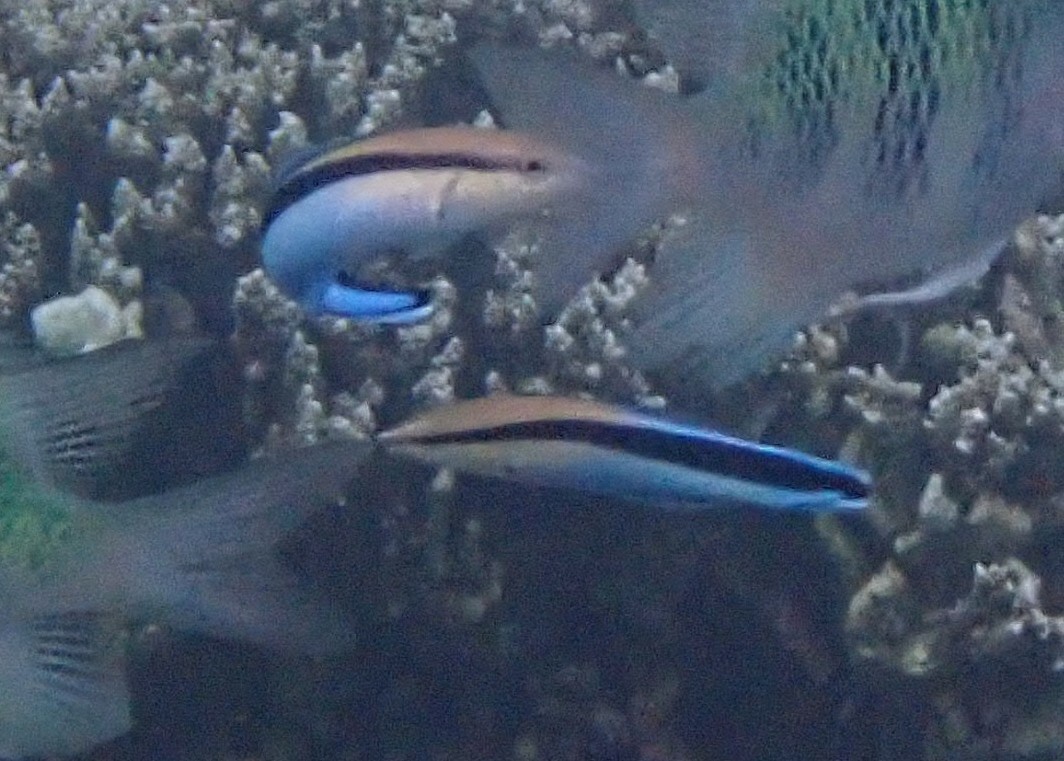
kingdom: Animalia
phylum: Chordata
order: Perciformes
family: Labridae
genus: Labroides
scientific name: Labroides dimidiatus
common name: Blue diesel wrasse
